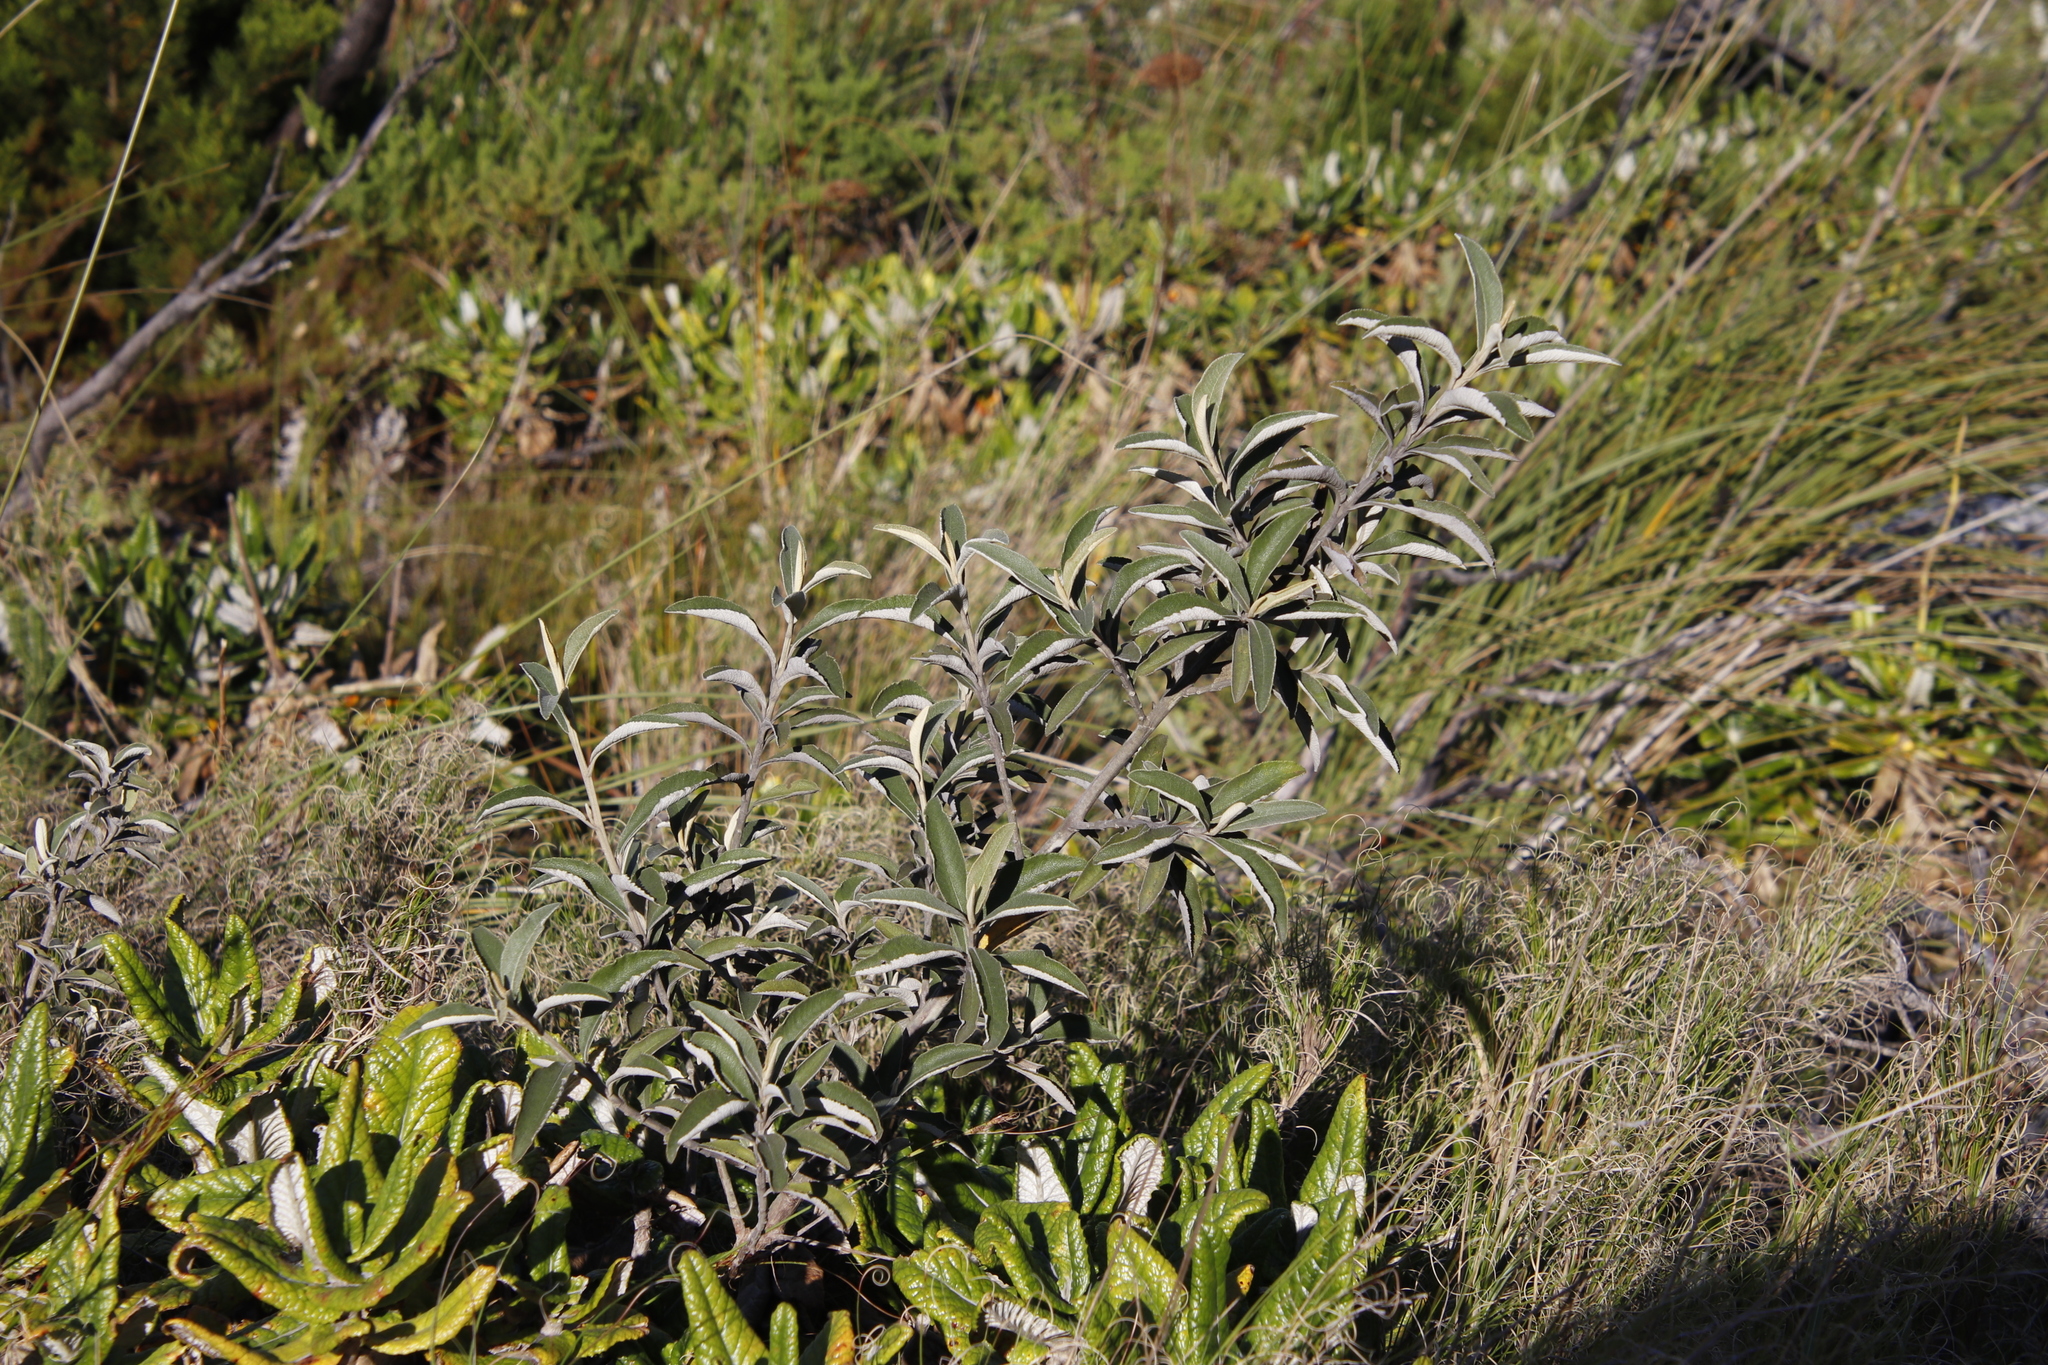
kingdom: Plantae
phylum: Tracheophyta
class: Magnoliopsida
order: Asterales
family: Asteraceae
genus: Tarchonanthus
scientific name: Tarchonanthus littoralis
